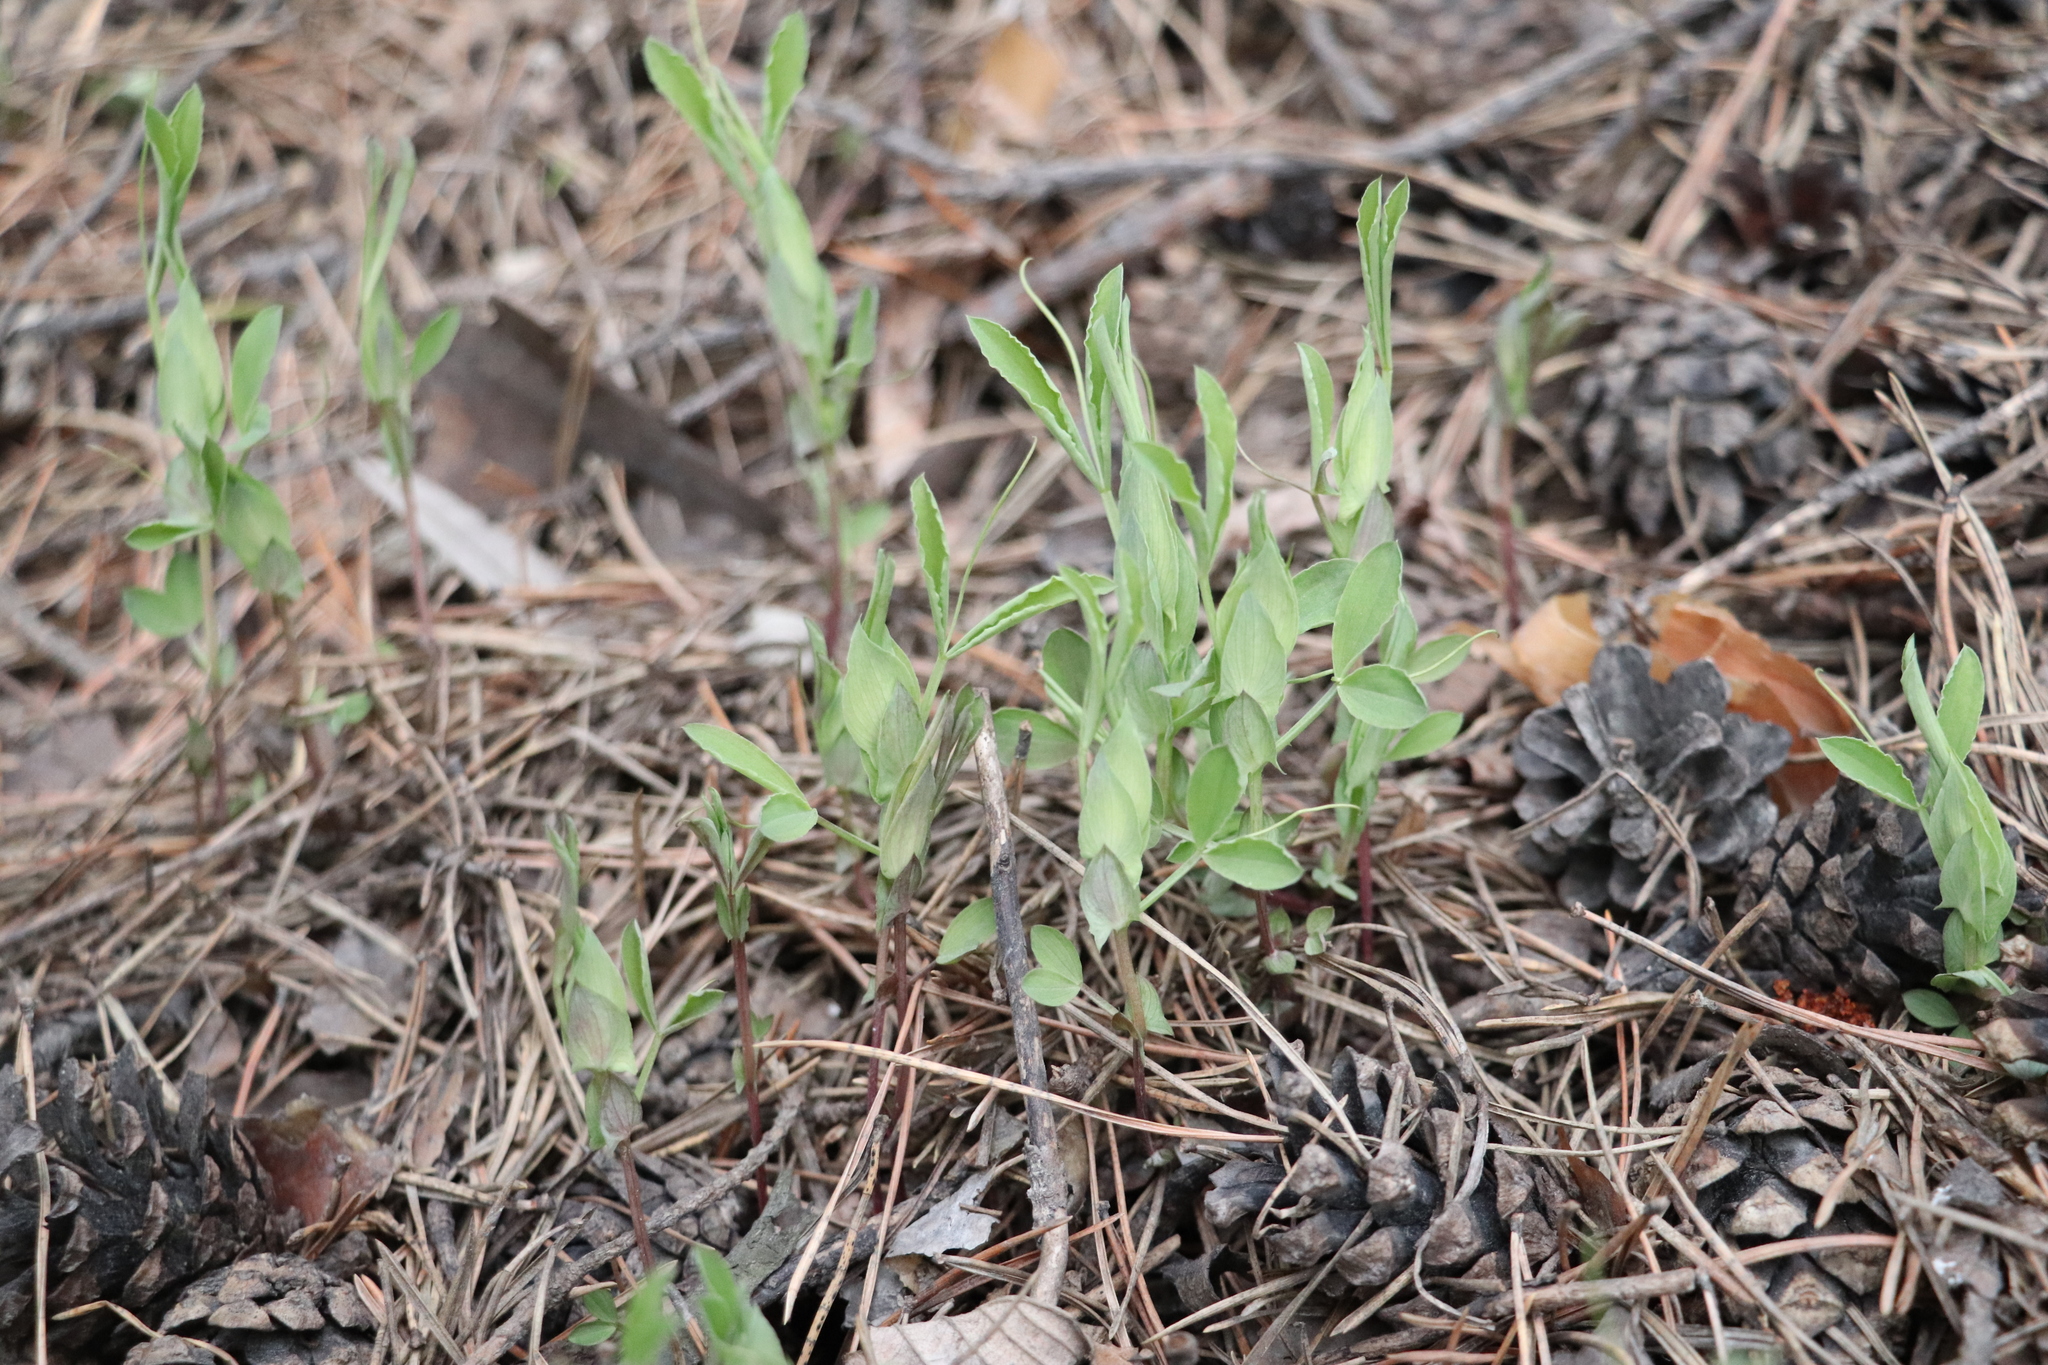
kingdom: Plantae
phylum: Tracheophyta
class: Magnoliopsida
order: Fabales
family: Fabaceae
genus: Lathyrus
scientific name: Lathyrus pratensis
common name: Meadow vetchling
